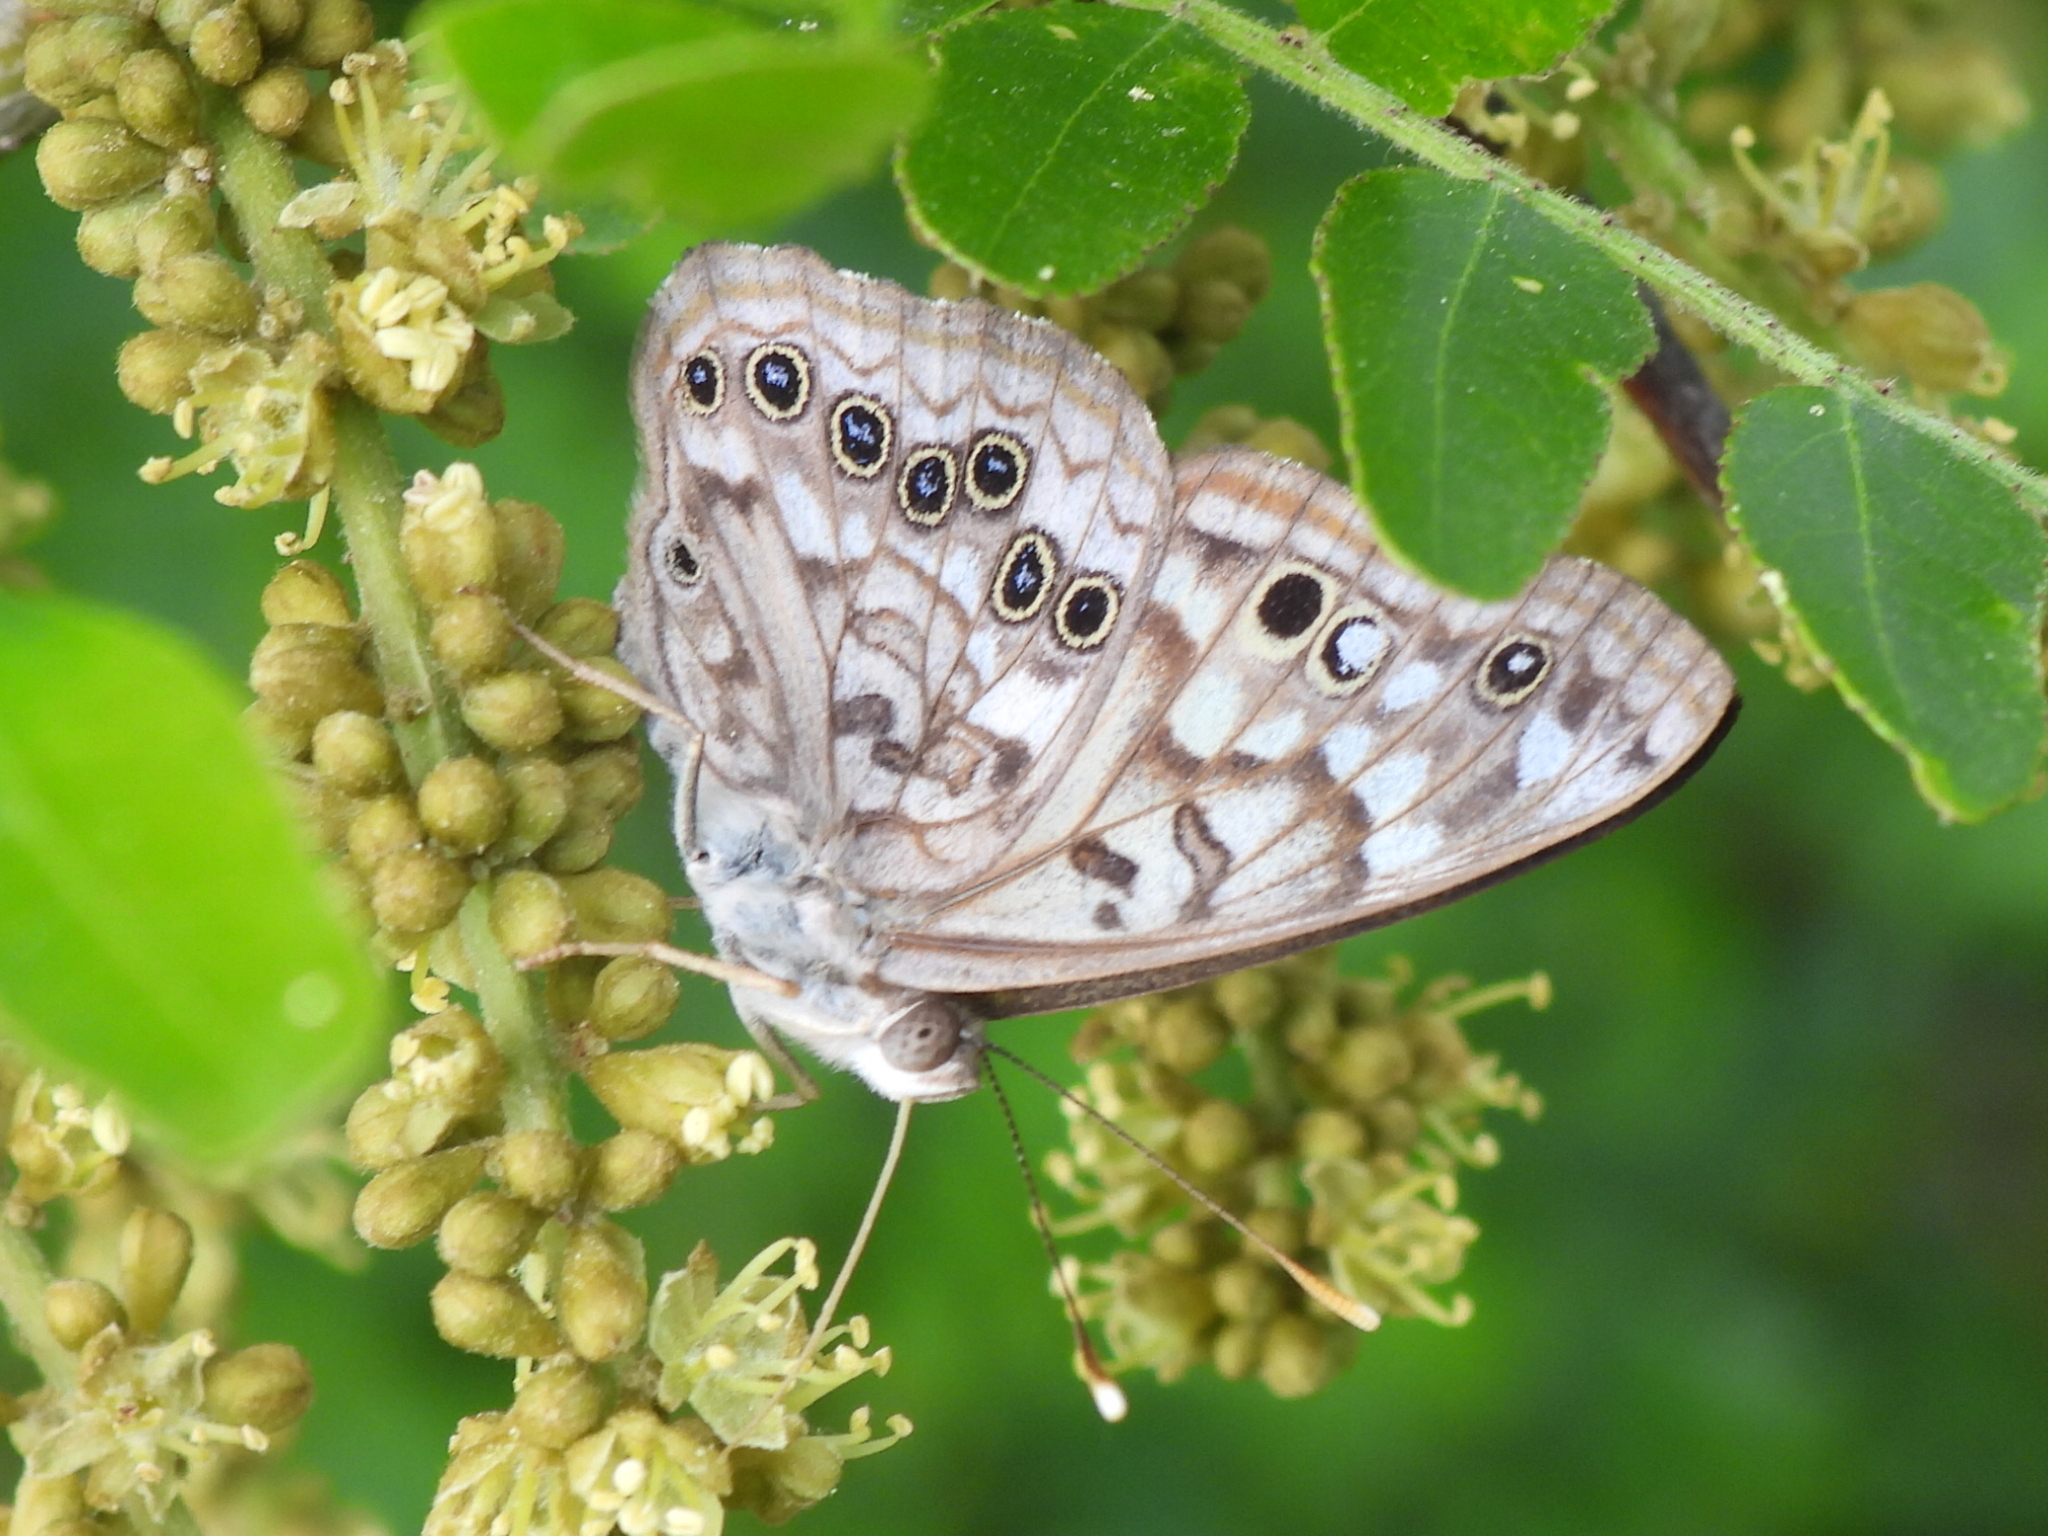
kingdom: Animalia
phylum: Arthropoda
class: Insecta
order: Lepidoptera
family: Nymphalidae
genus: Asterocampa
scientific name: Asterocampa celtis
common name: Hackberry emperor
